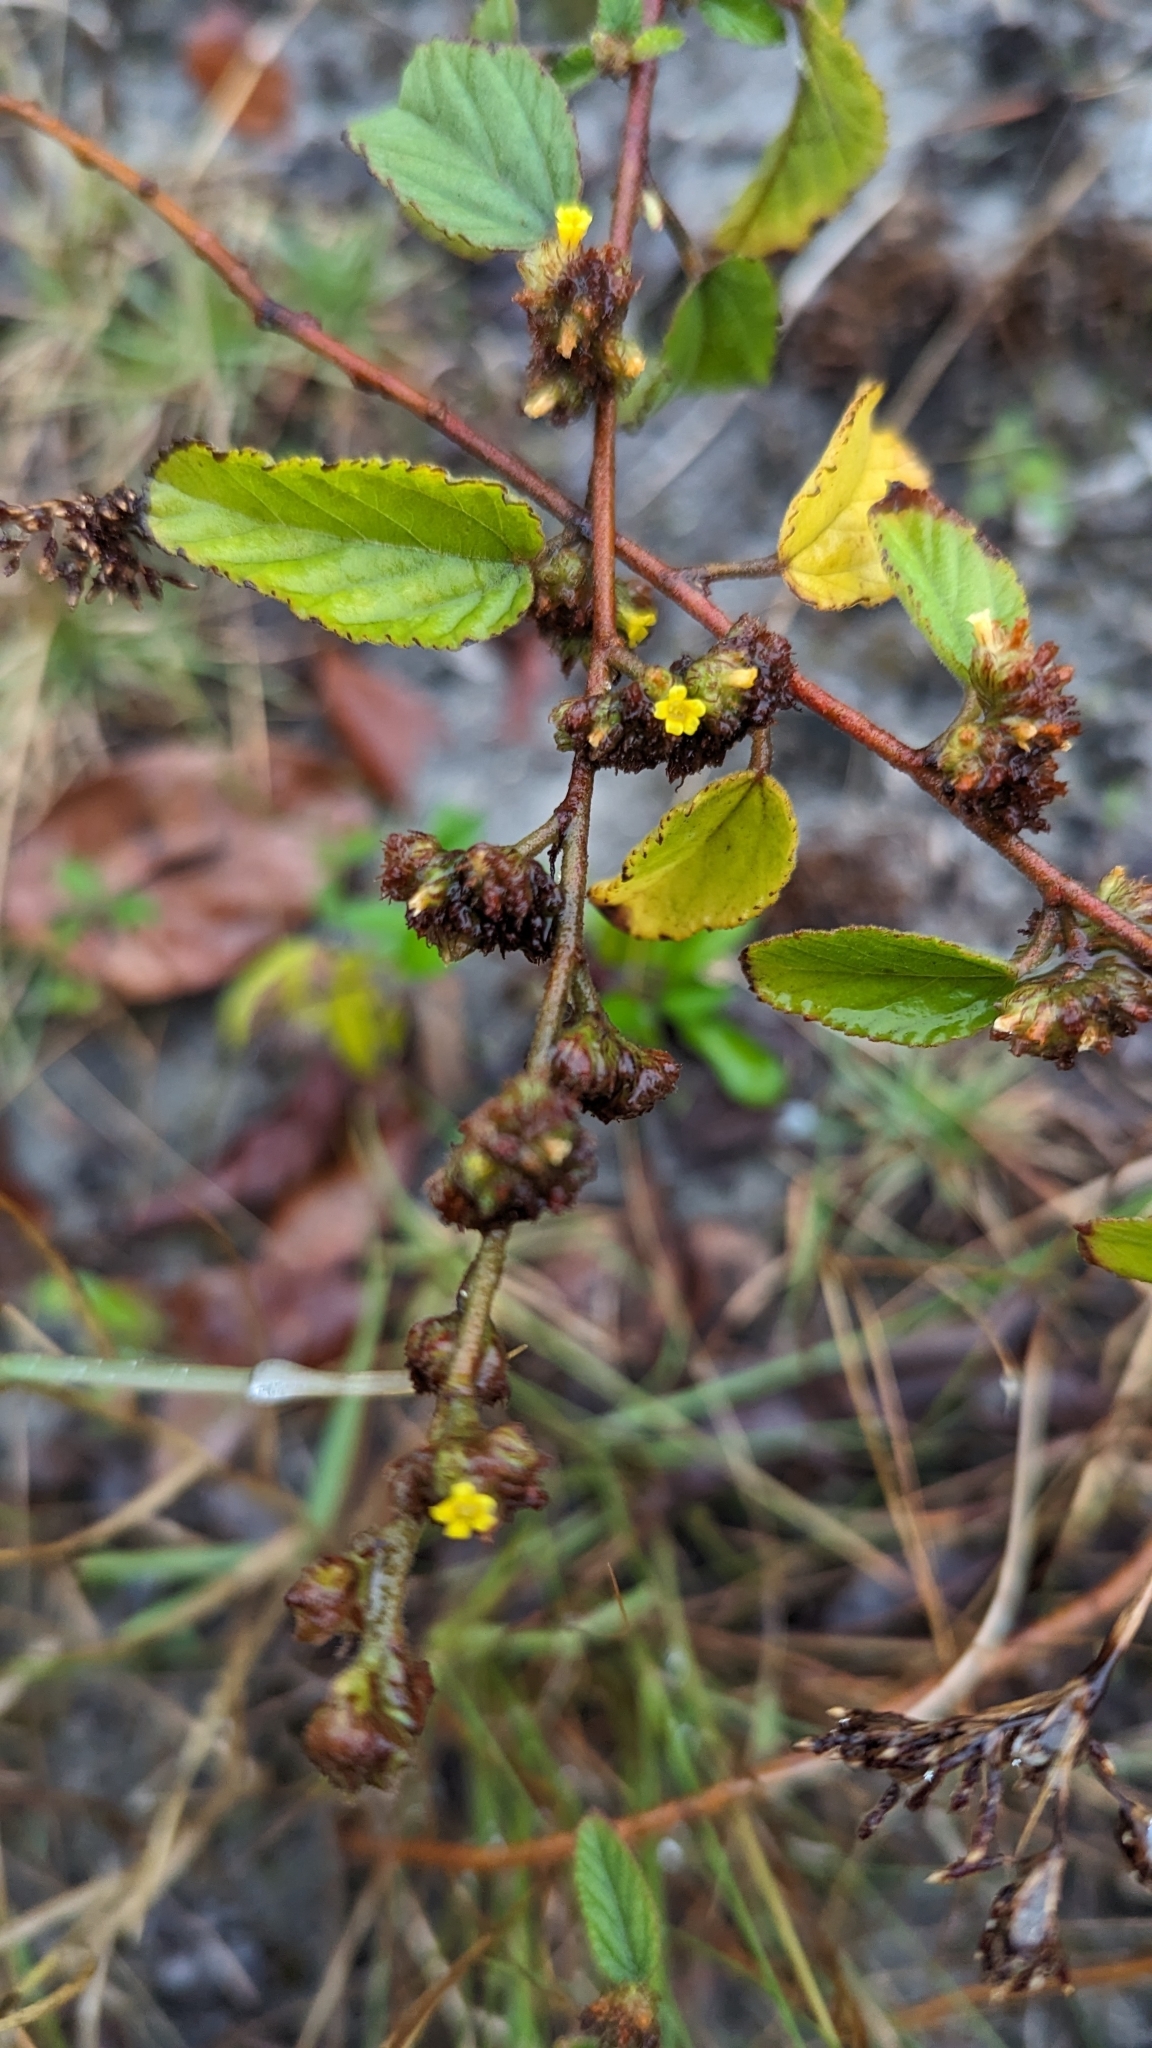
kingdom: Plantae
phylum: Tracheophyta
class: Magnoliopsida
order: Malvales
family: Malvaceae
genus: Waltheria
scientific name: Waltheria indica
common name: Leather-coat
